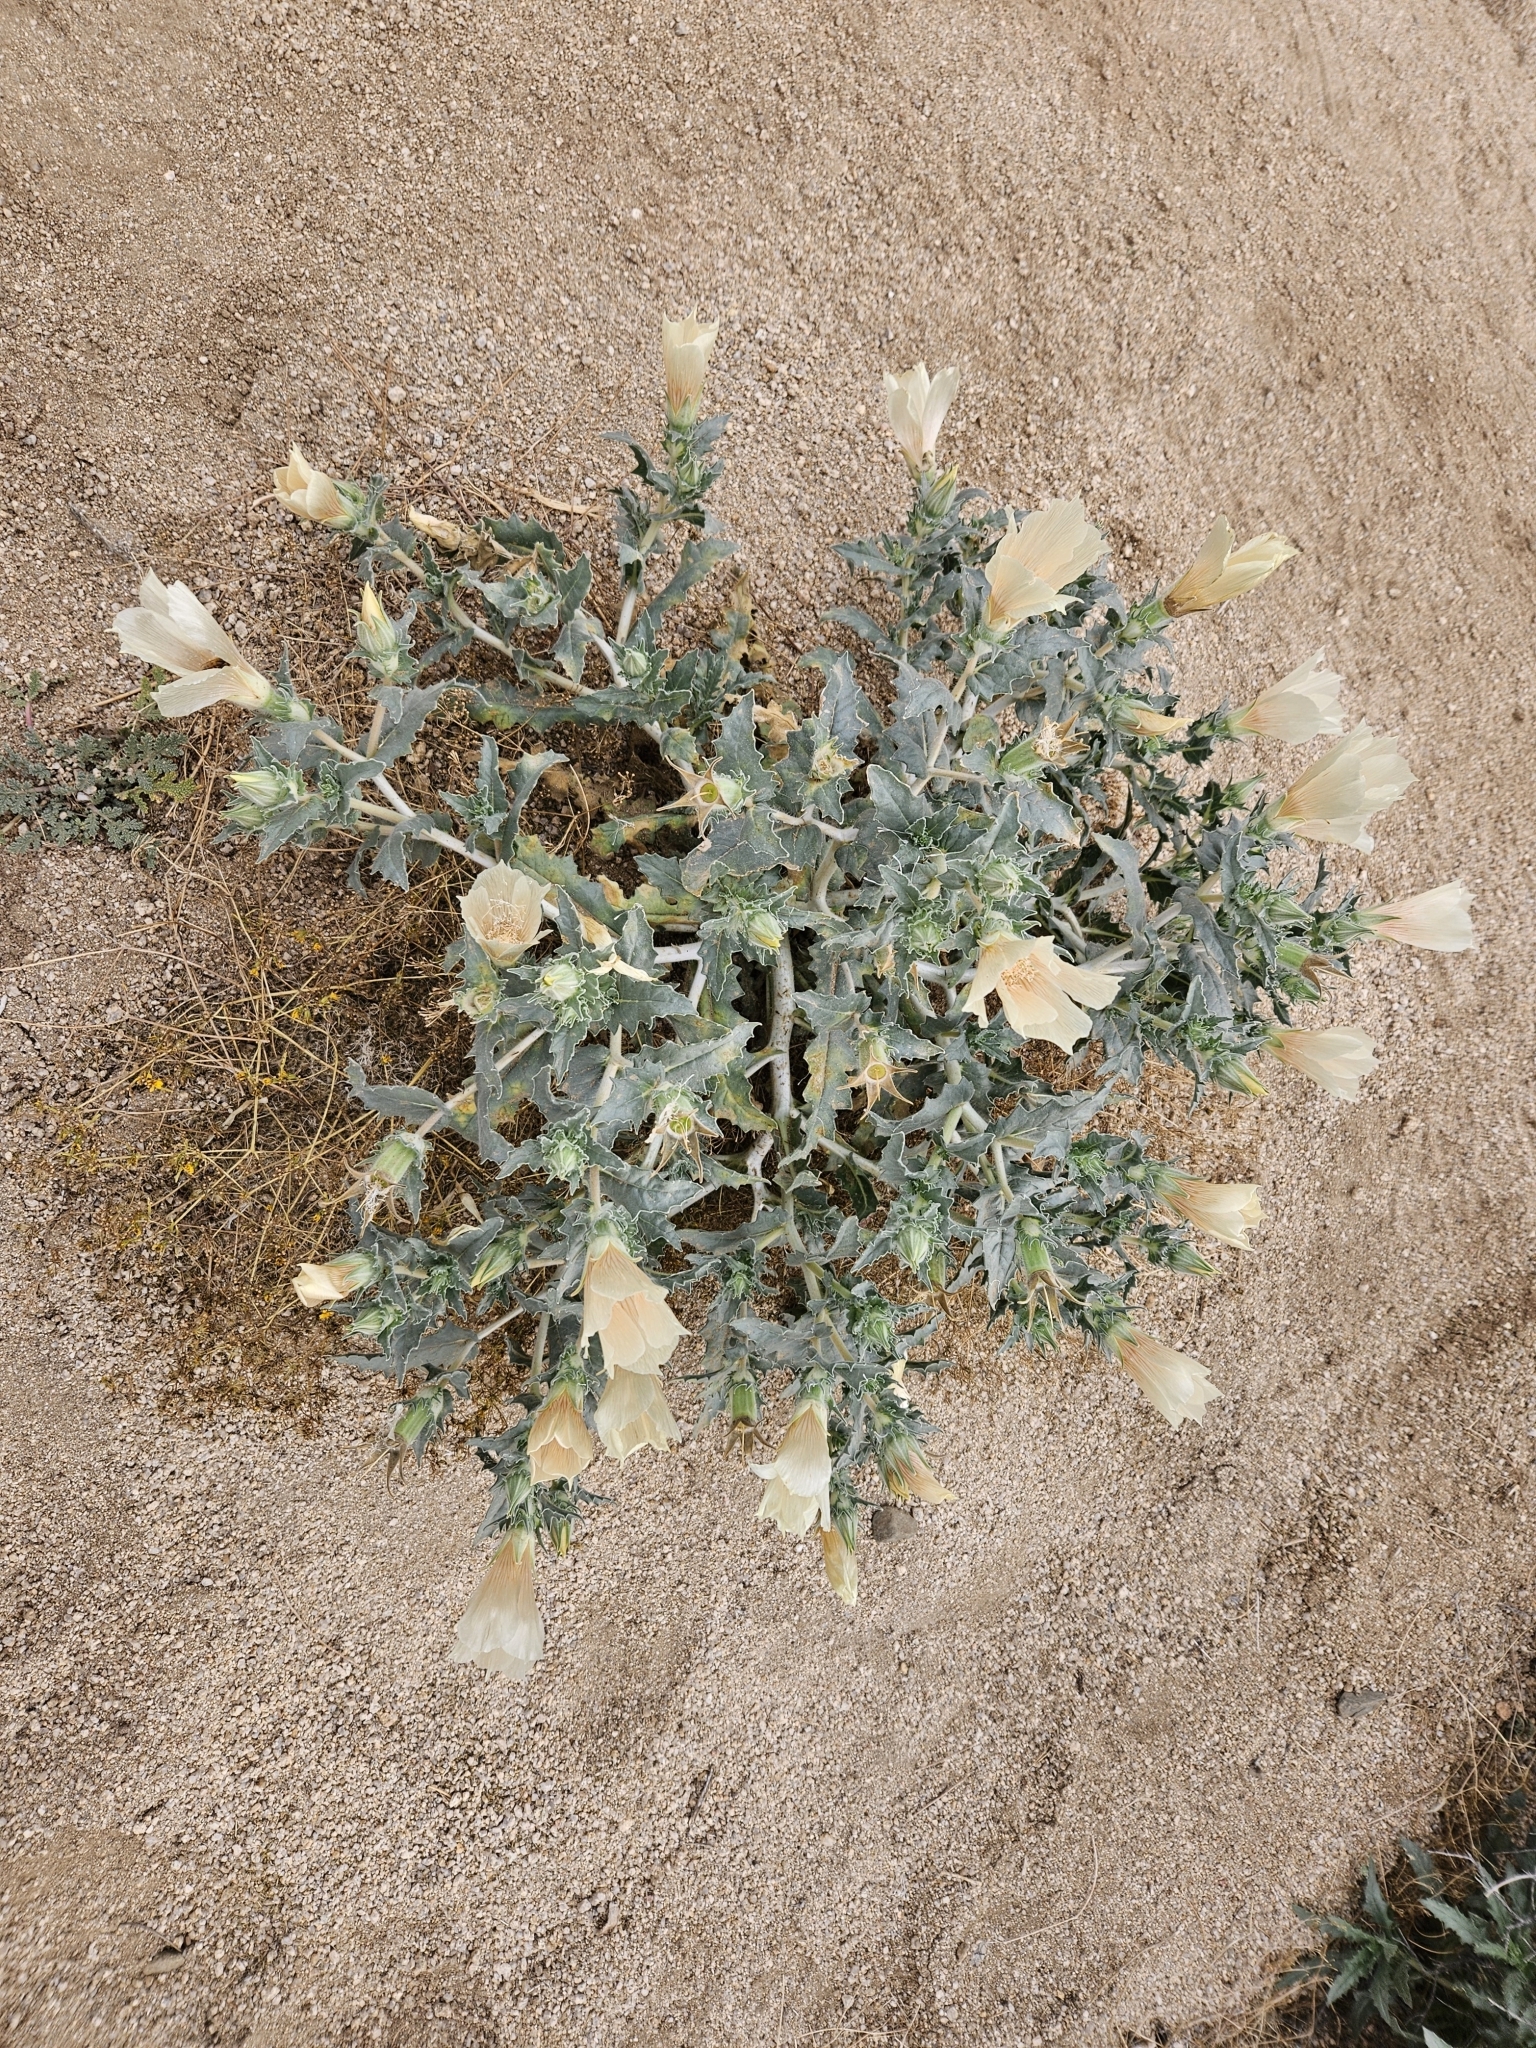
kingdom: Plantae
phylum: Tracheophyta
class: Magnoliopsida
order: Cornales
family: Loasaceae
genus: Mentzelia
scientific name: Mentzelia involucrata
